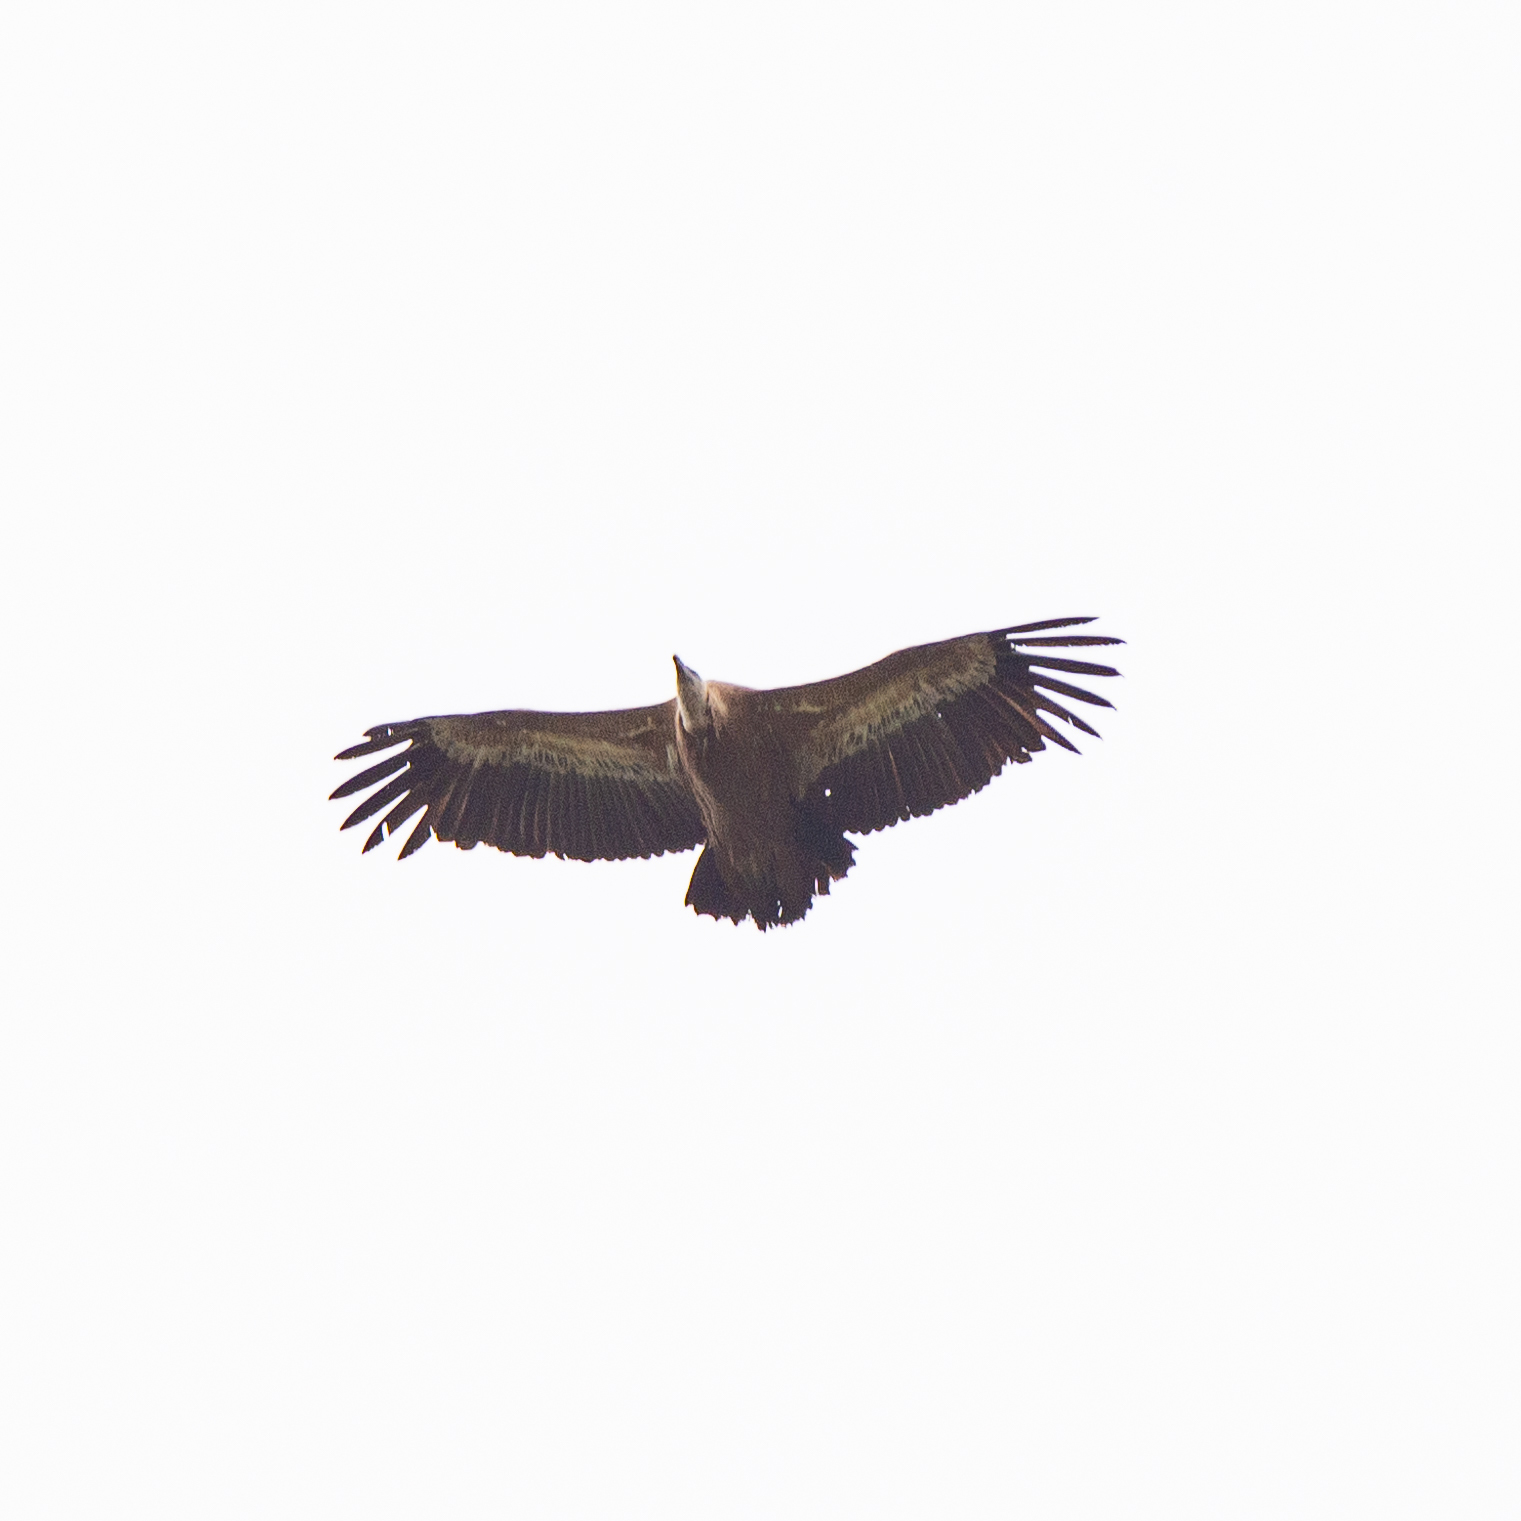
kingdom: Animalia
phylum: Chordata
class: Aves
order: Accipitriformes
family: Accipitridae
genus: Gyps
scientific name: Gyps fulvus
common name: Griffon vulture
